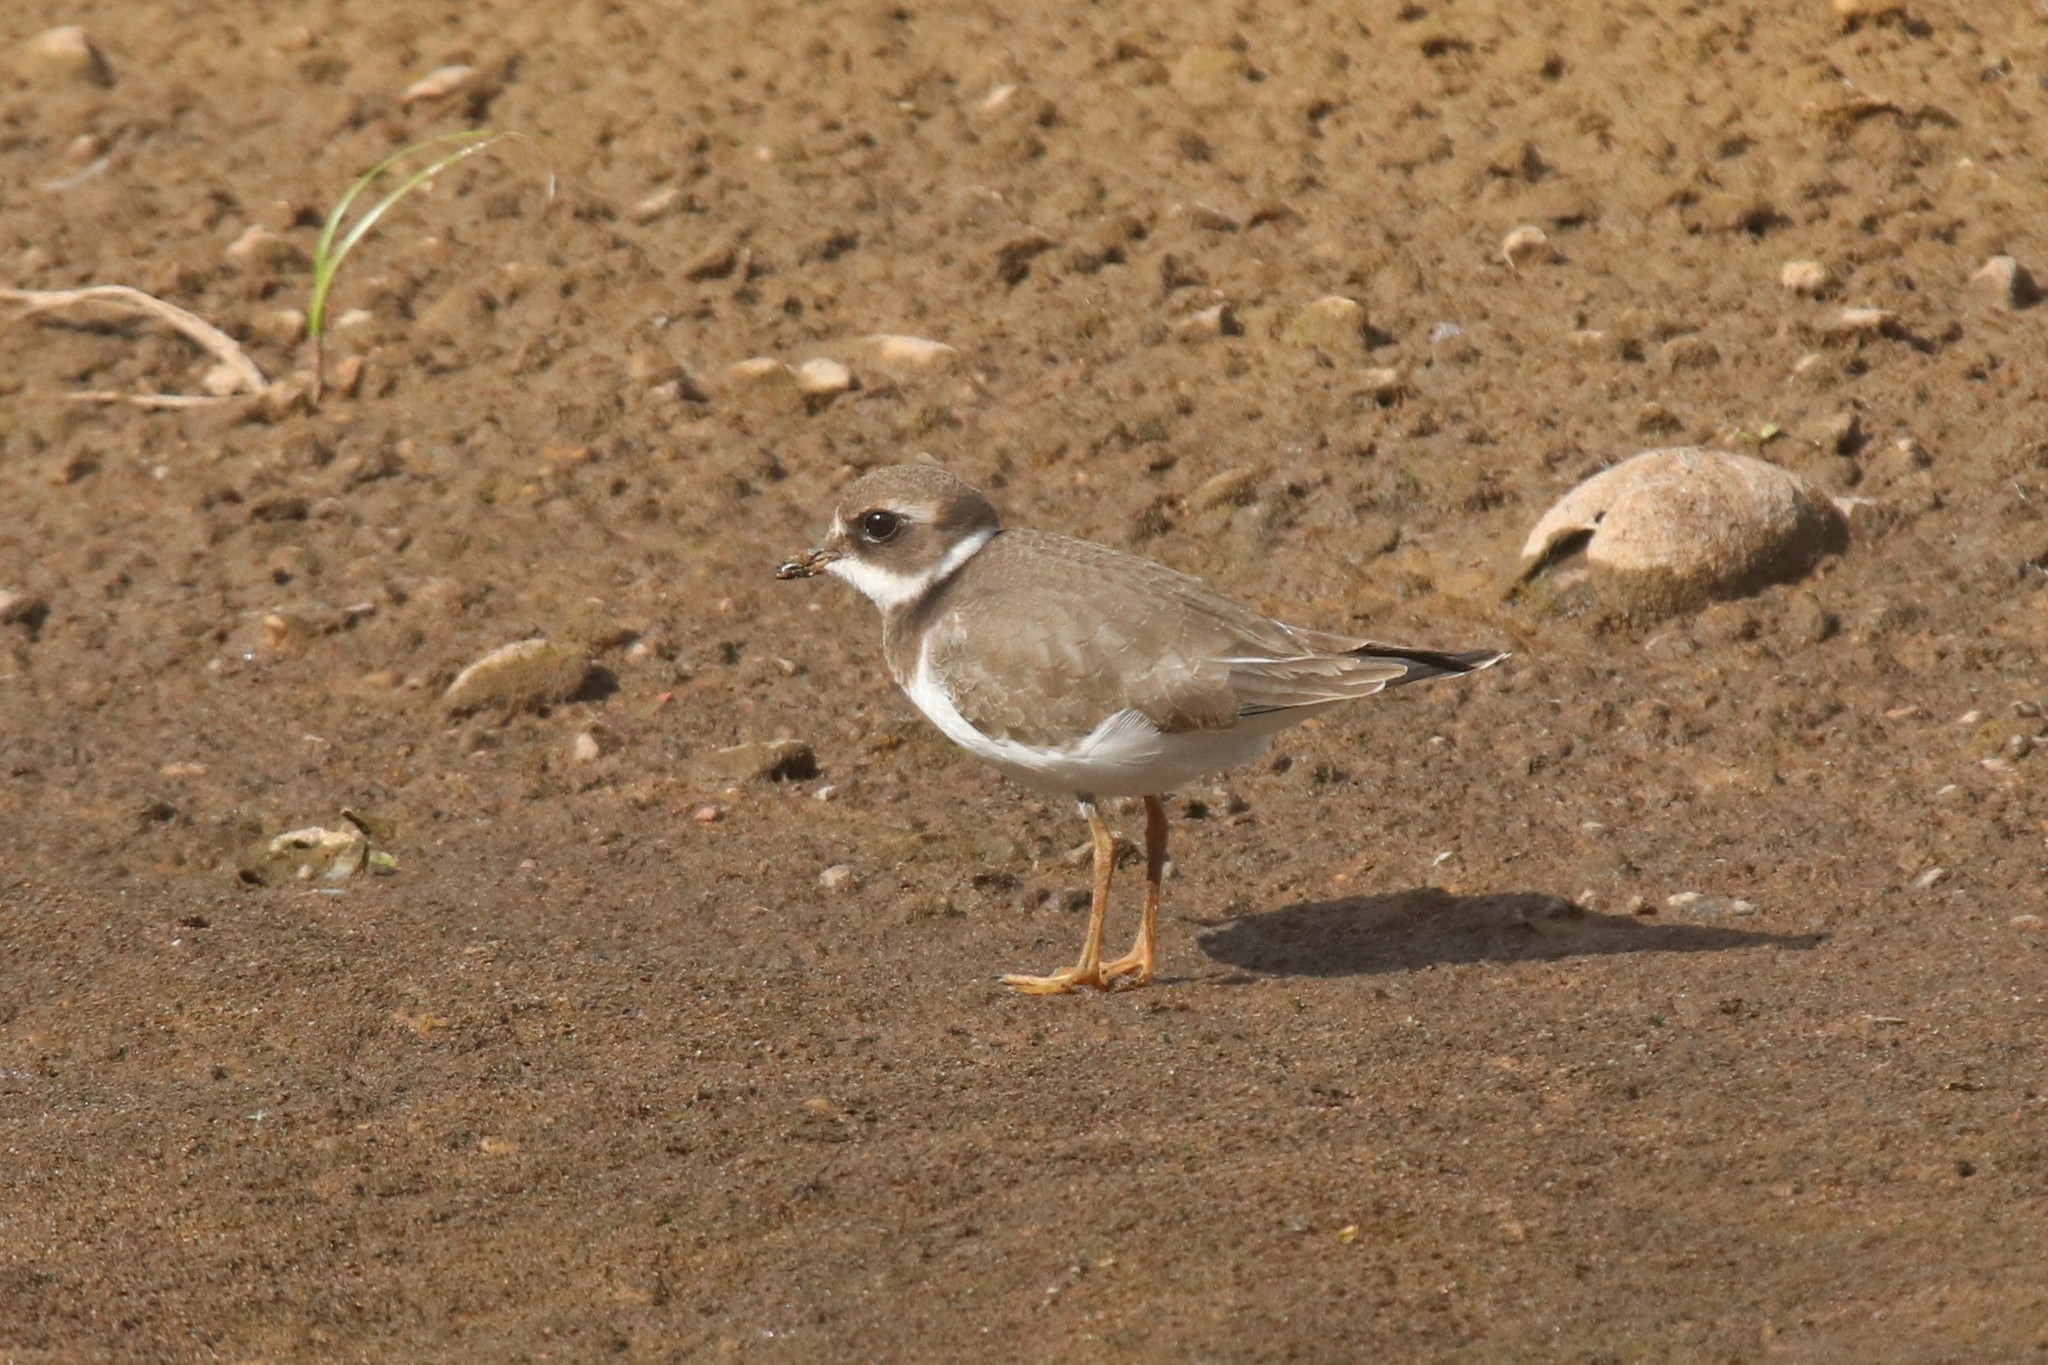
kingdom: Animalia
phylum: Chordata
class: Aves
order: Charadriiformes
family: Charadriidae
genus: Charadrius
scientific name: Charadrius hiaticula
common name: Common ringed plover
